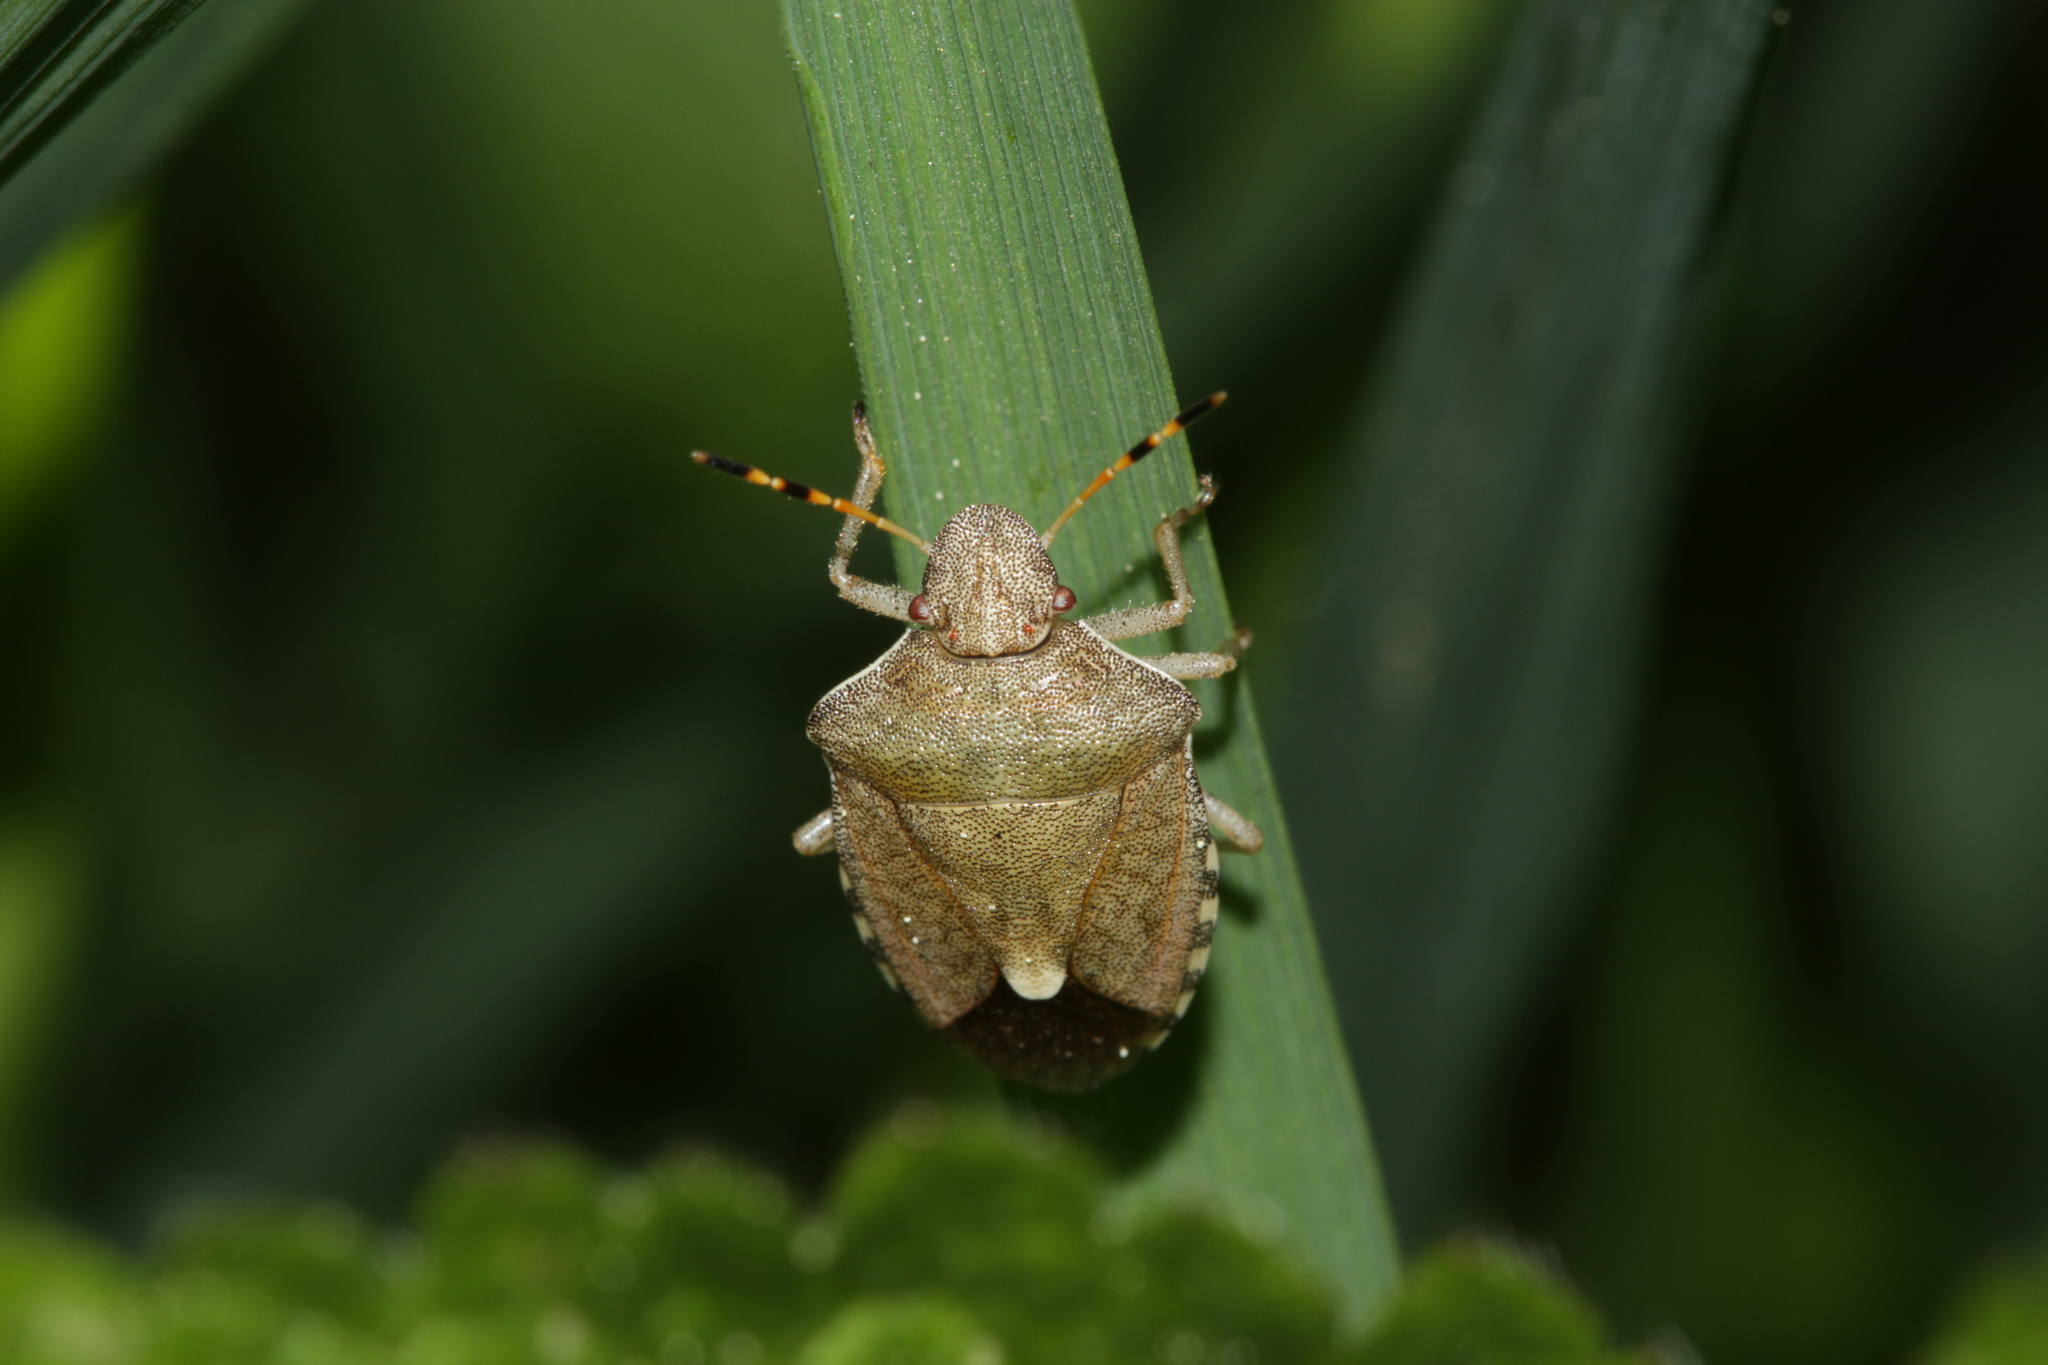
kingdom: Animalia
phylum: Arthropoda
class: Insecta
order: Hemiptera
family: Pentatomidae
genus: Holcostethus
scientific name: Holcostethus strictus
